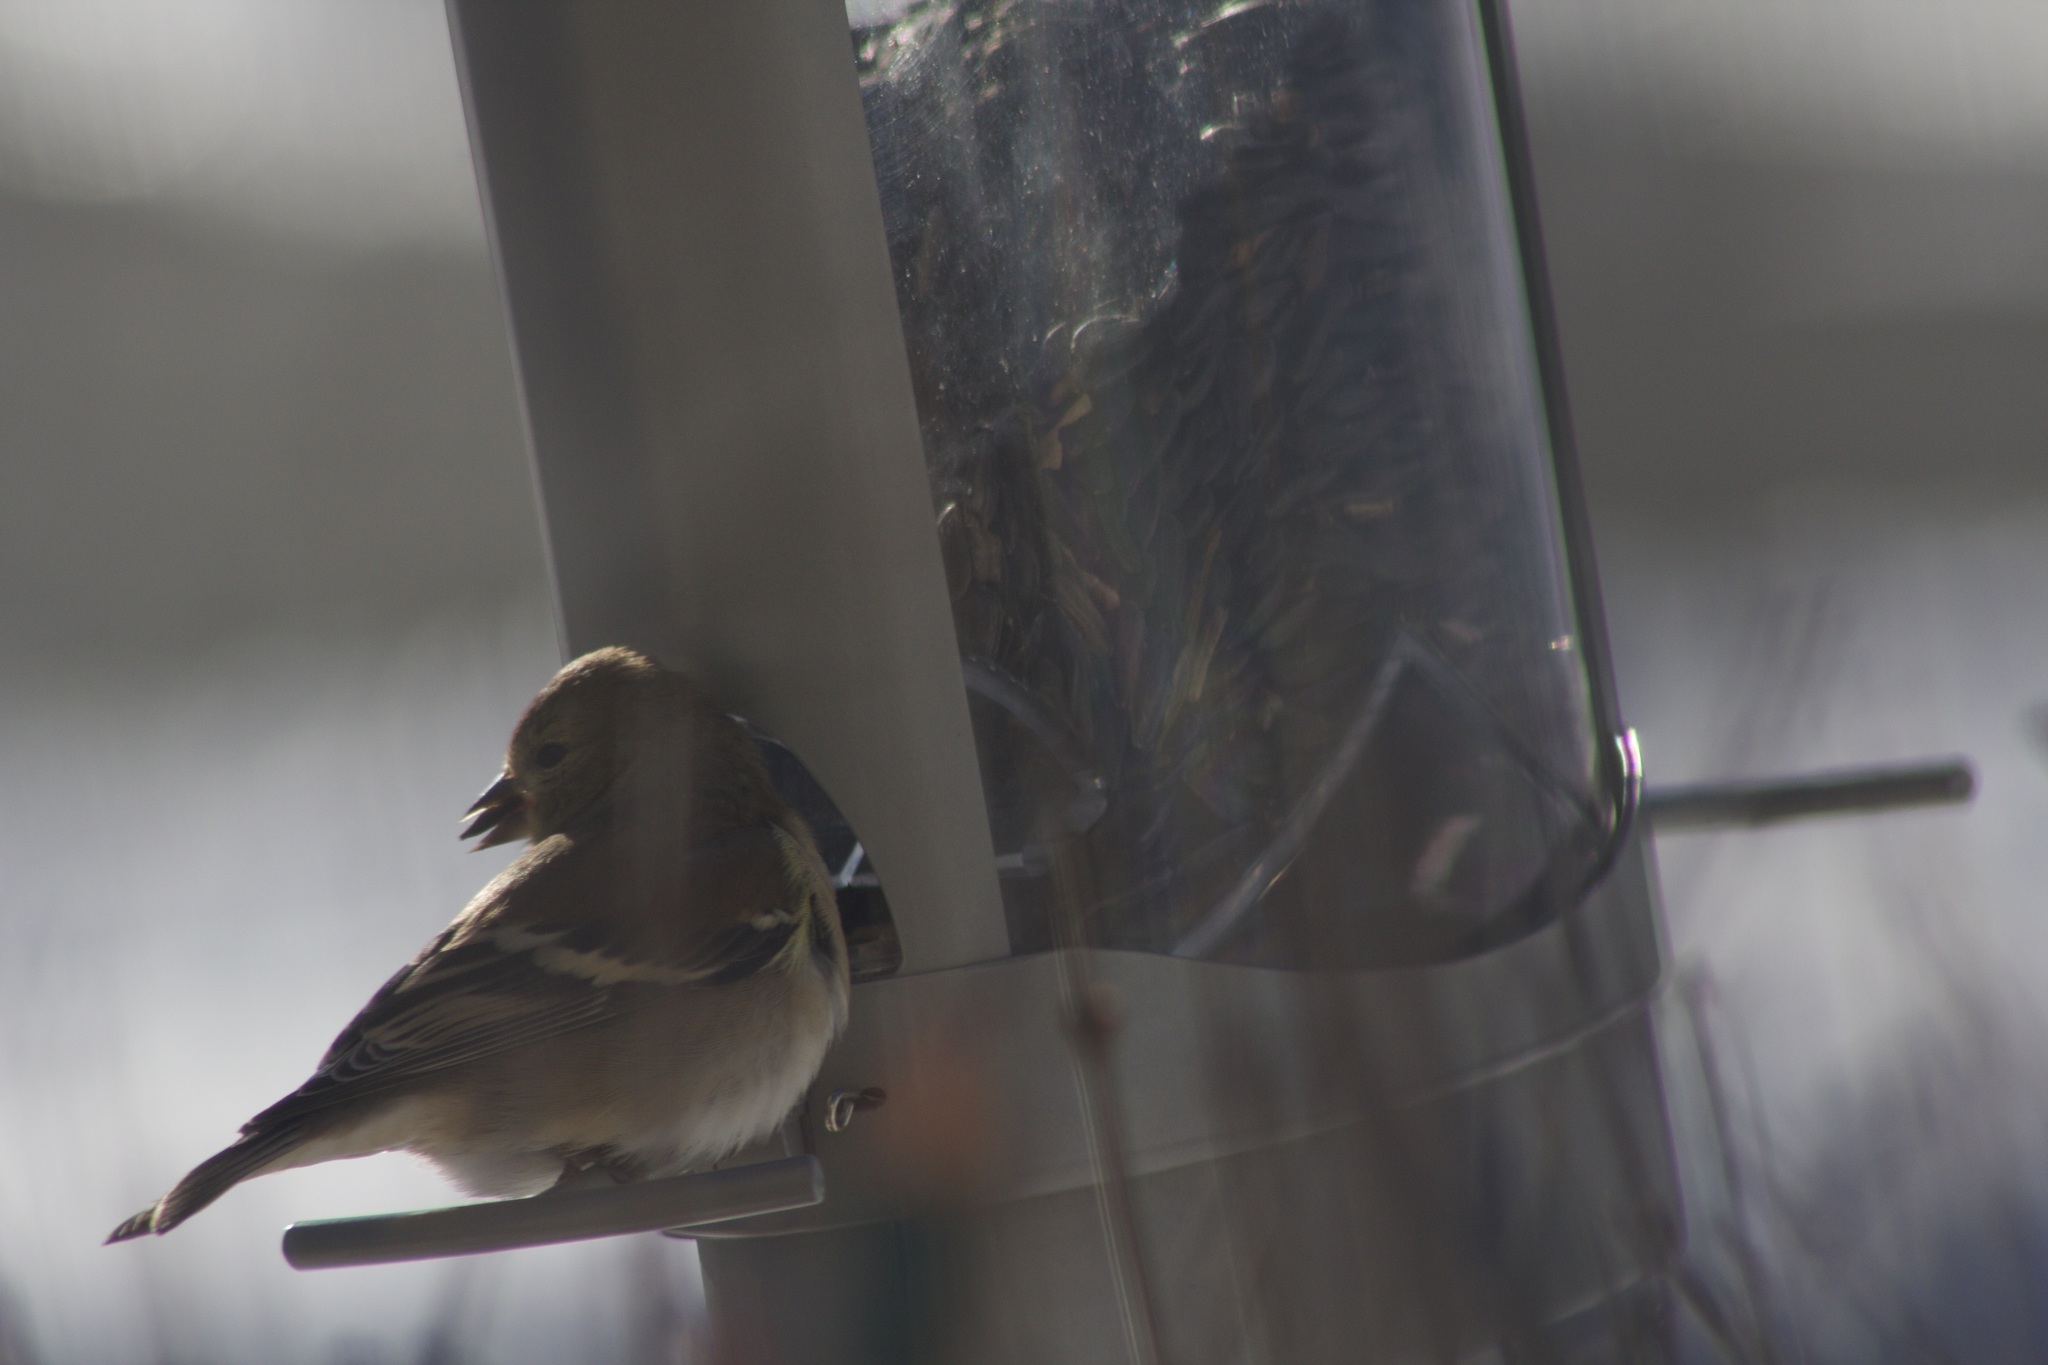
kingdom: Animalia
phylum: Chordata
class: Aves
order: Passeriformes
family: Fringillidae
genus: Spinus
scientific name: Spinus tristis
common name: American goldfinch
